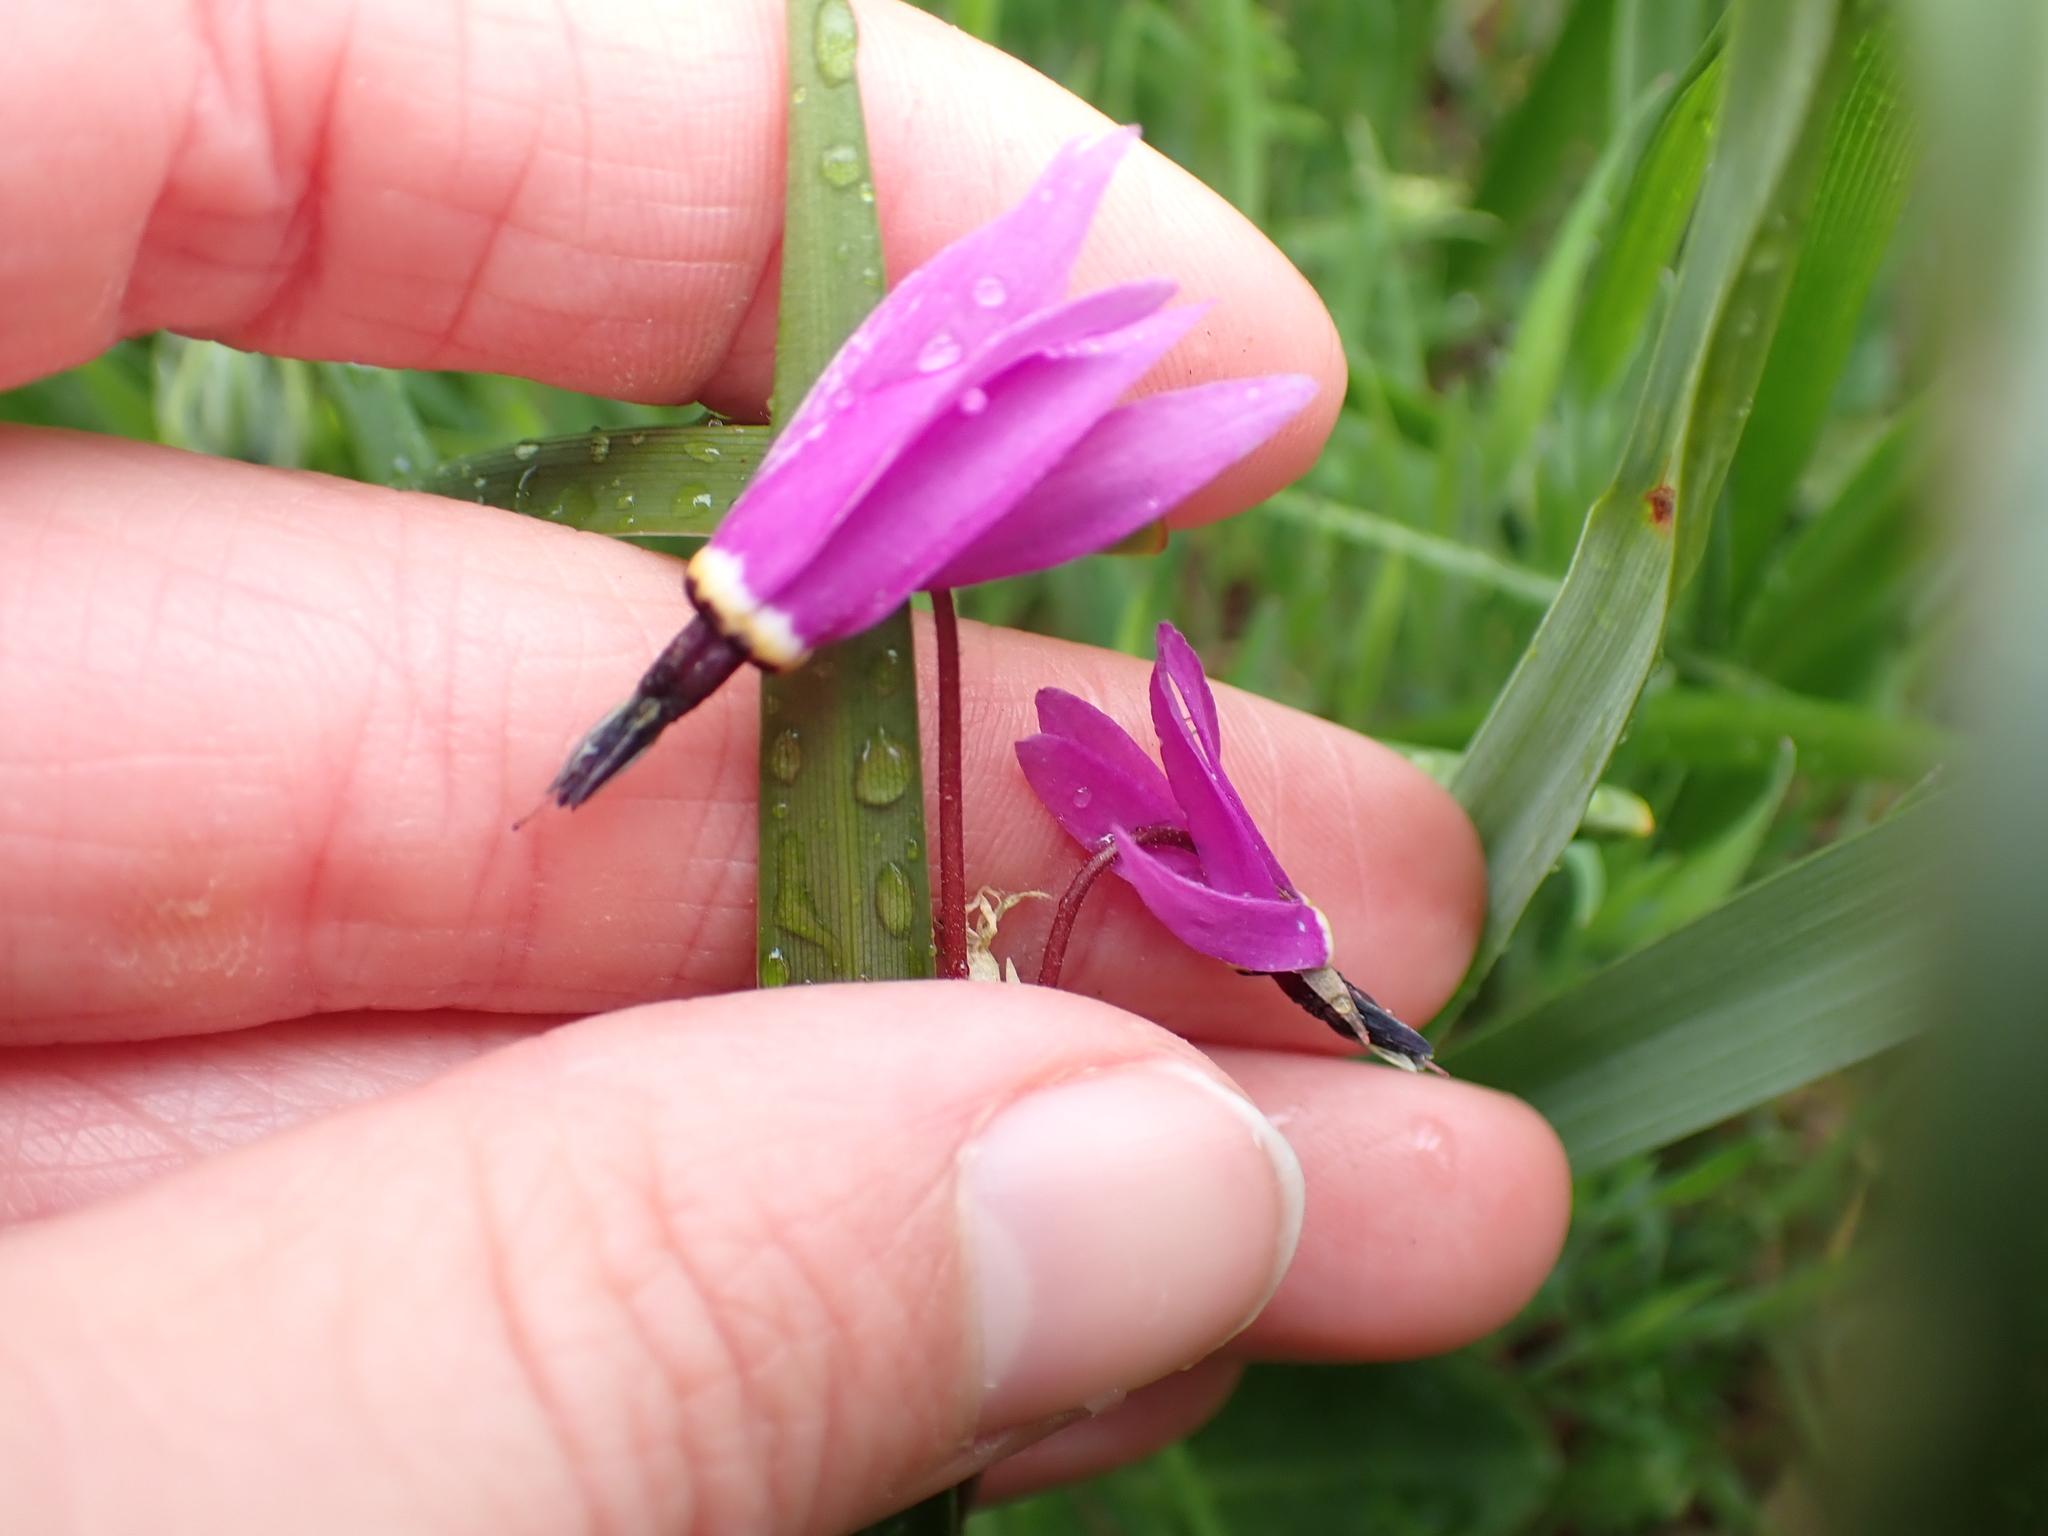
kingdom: Plantae
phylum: Tracheophyta
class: Magnoliopsida
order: Ericales
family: Primulaceae
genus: Dodecatheon
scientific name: Dodecatheon hendersonii
